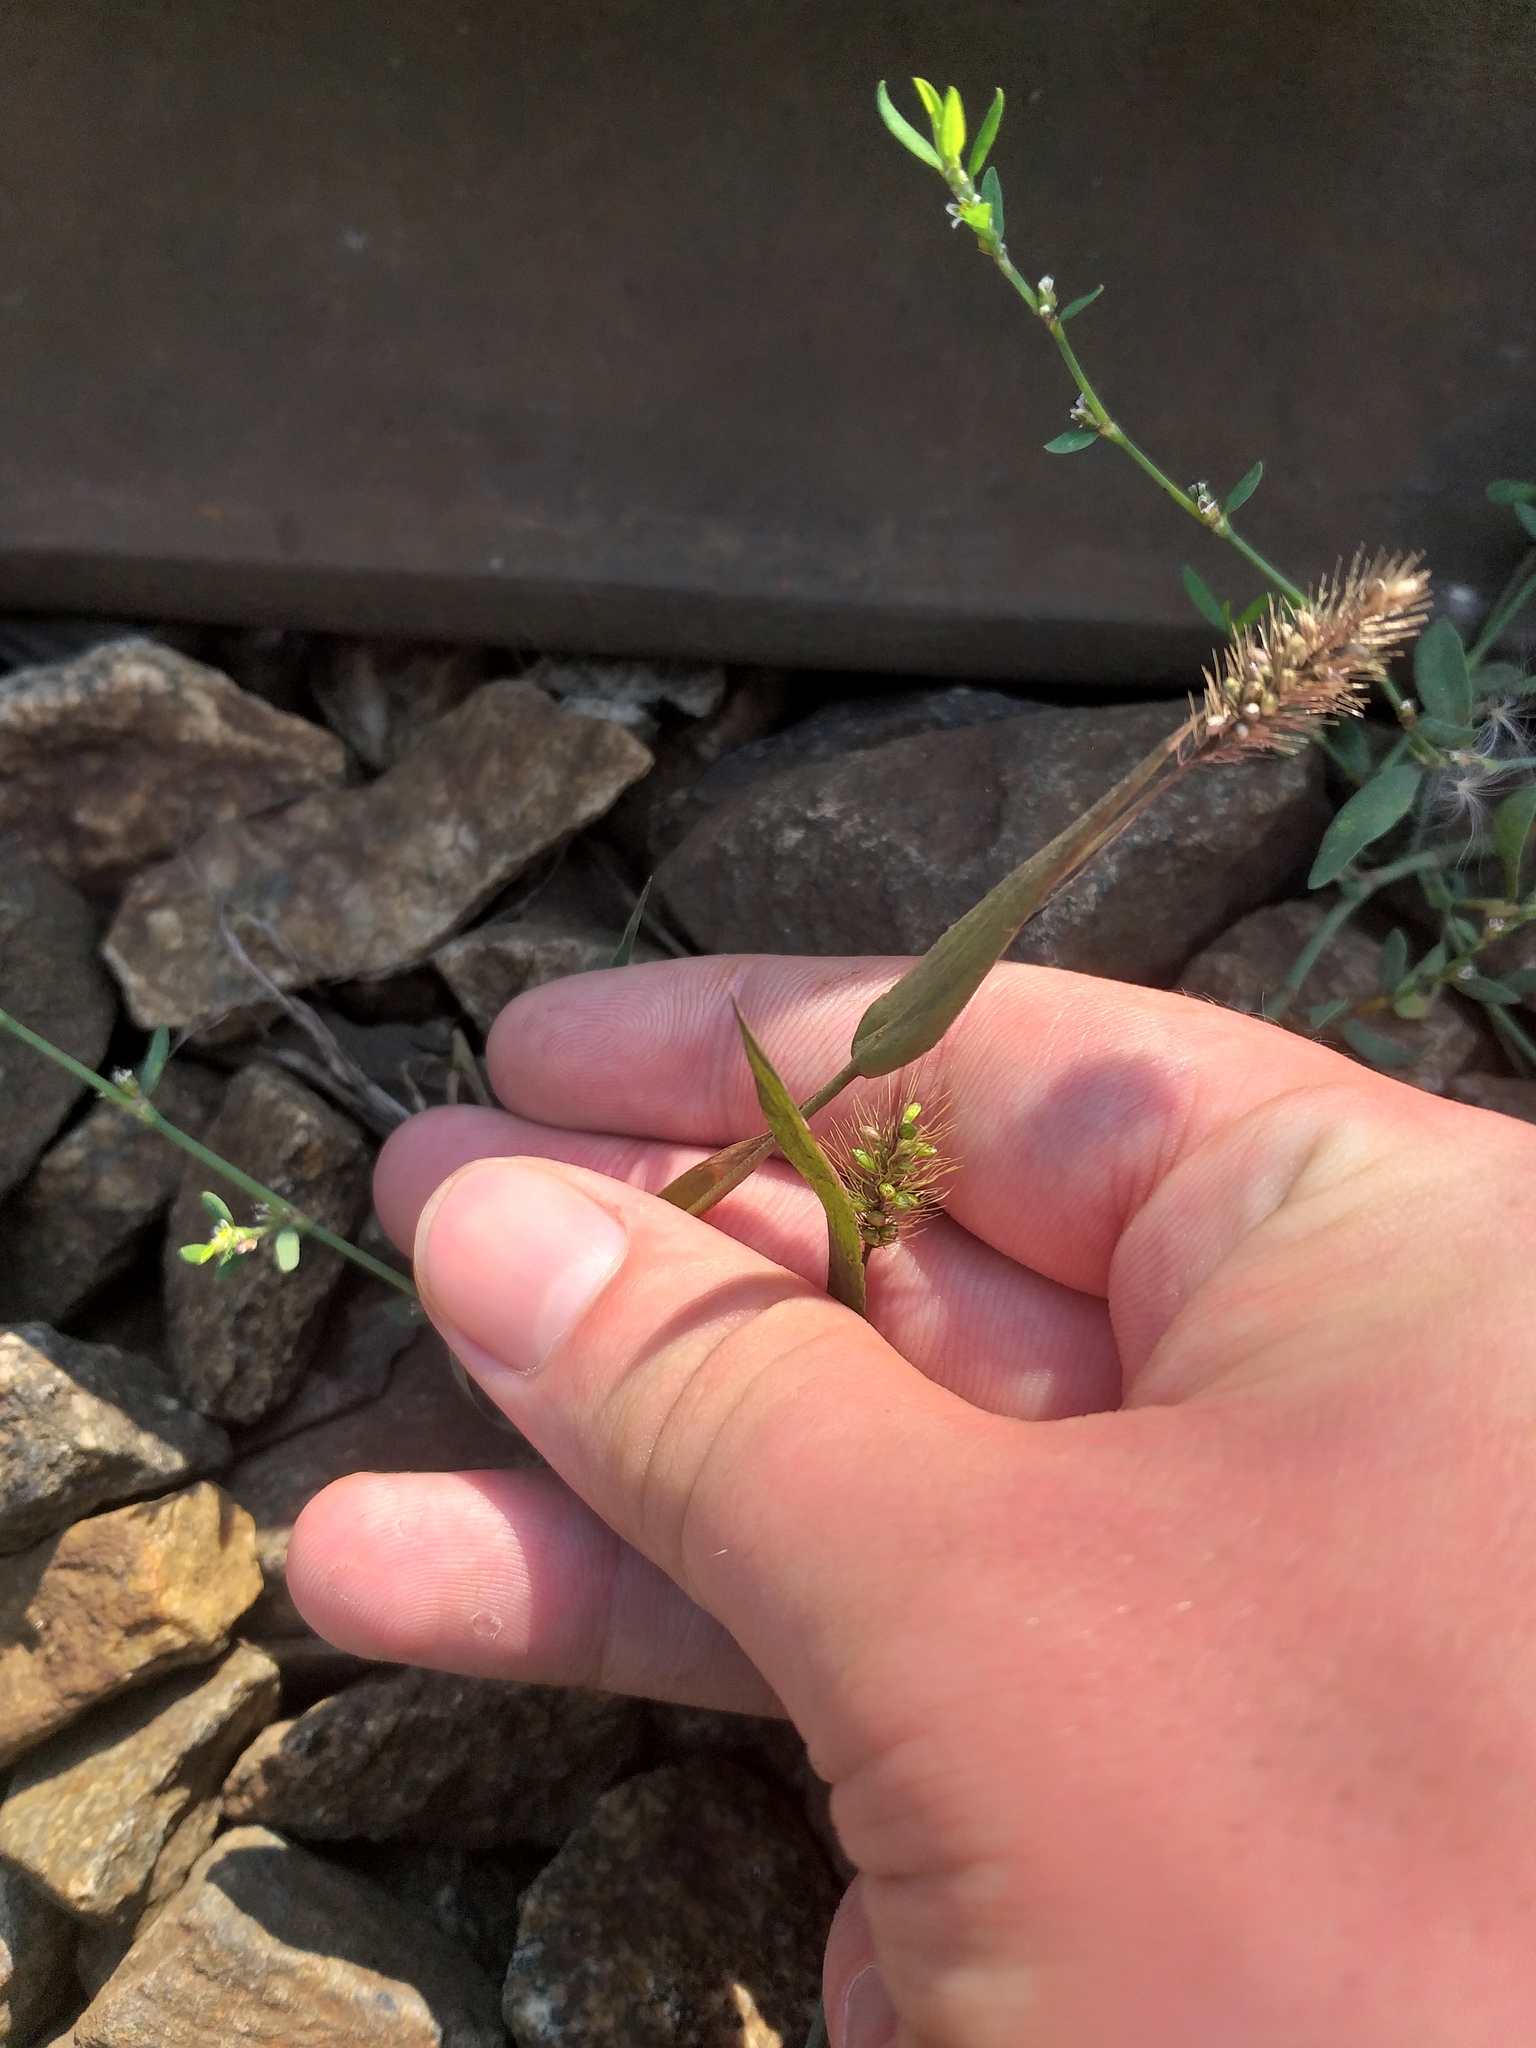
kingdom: Plantae
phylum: Tracheophyta
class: Liliopsida
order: Poales
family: Poaceae
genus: Setaria
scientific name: Setaria viridis
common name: Green bristlegrass
